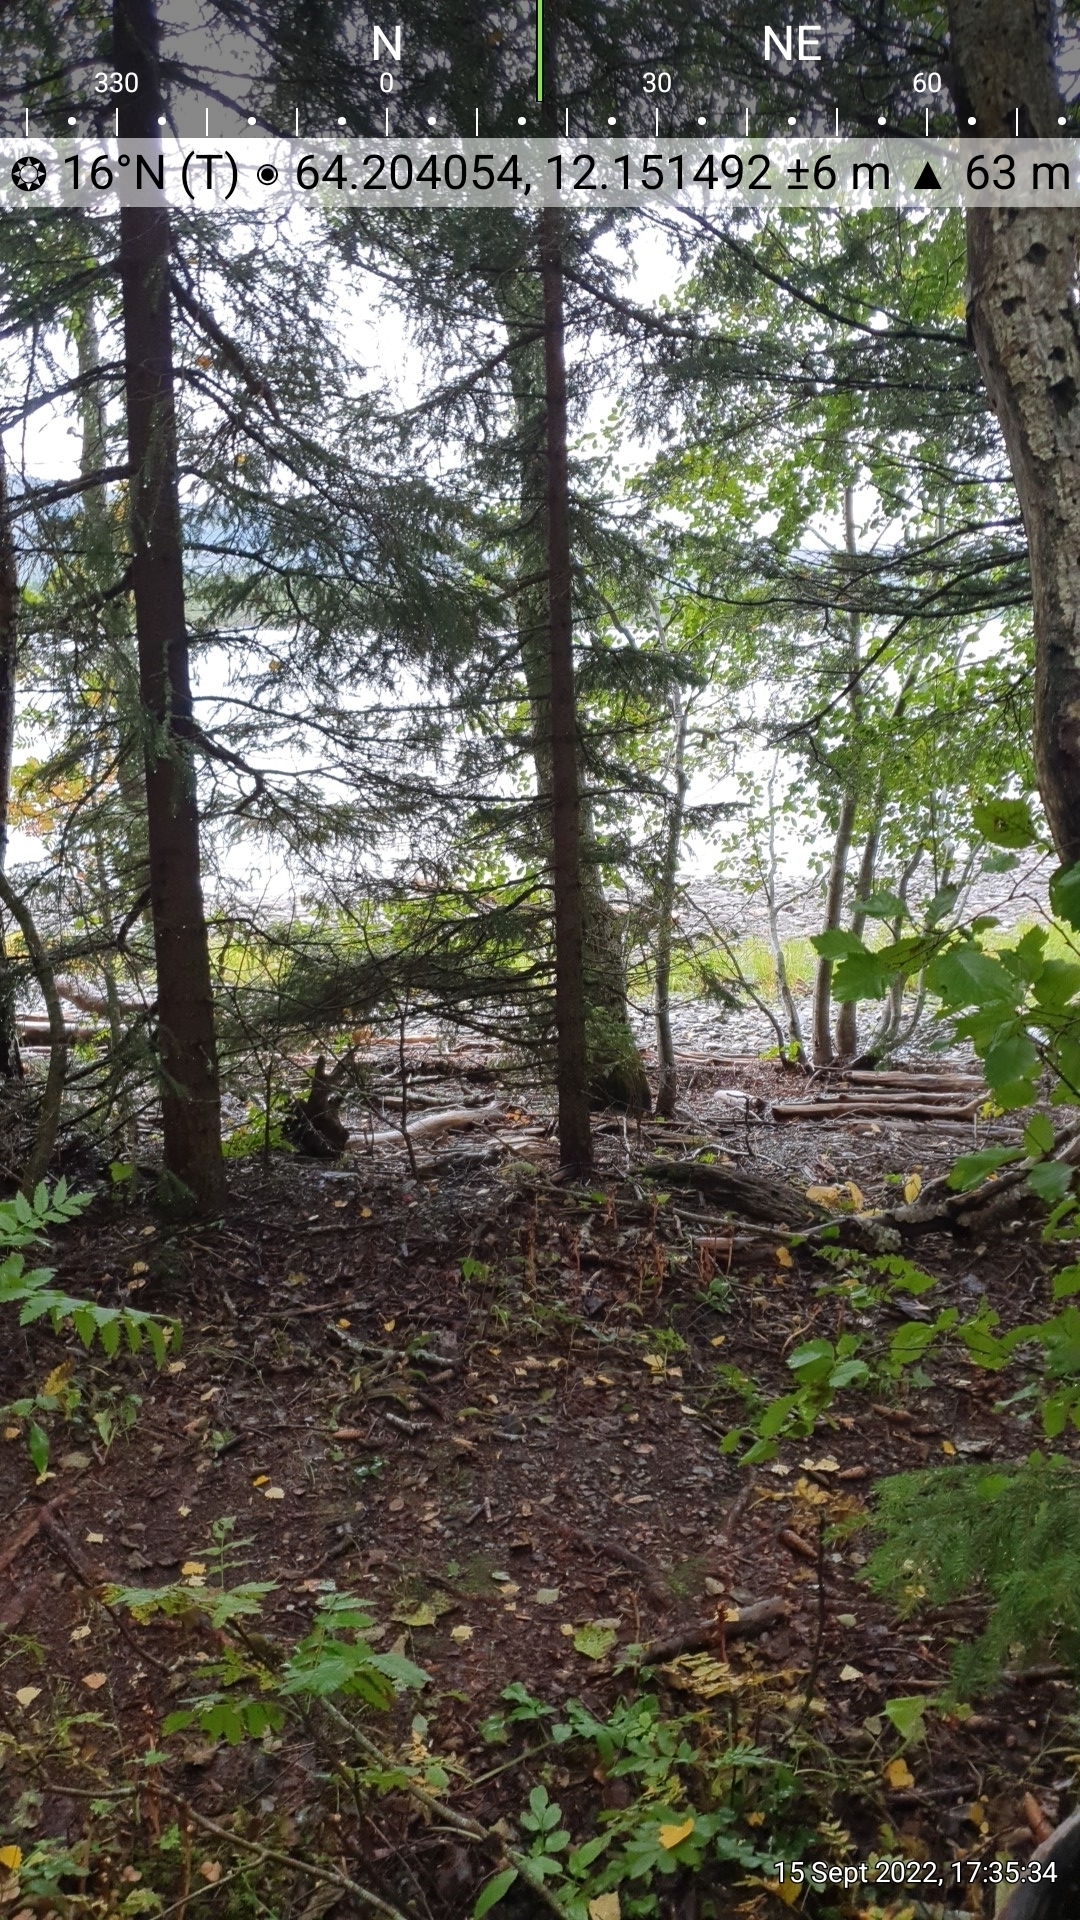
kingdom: Plantae
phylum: Tracheophyta
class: Magnoliopsida
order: Ericales
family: Ericaceae
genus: Hypopitys
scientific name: Hypopitys monotropa
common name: Yellow bird's-nest
